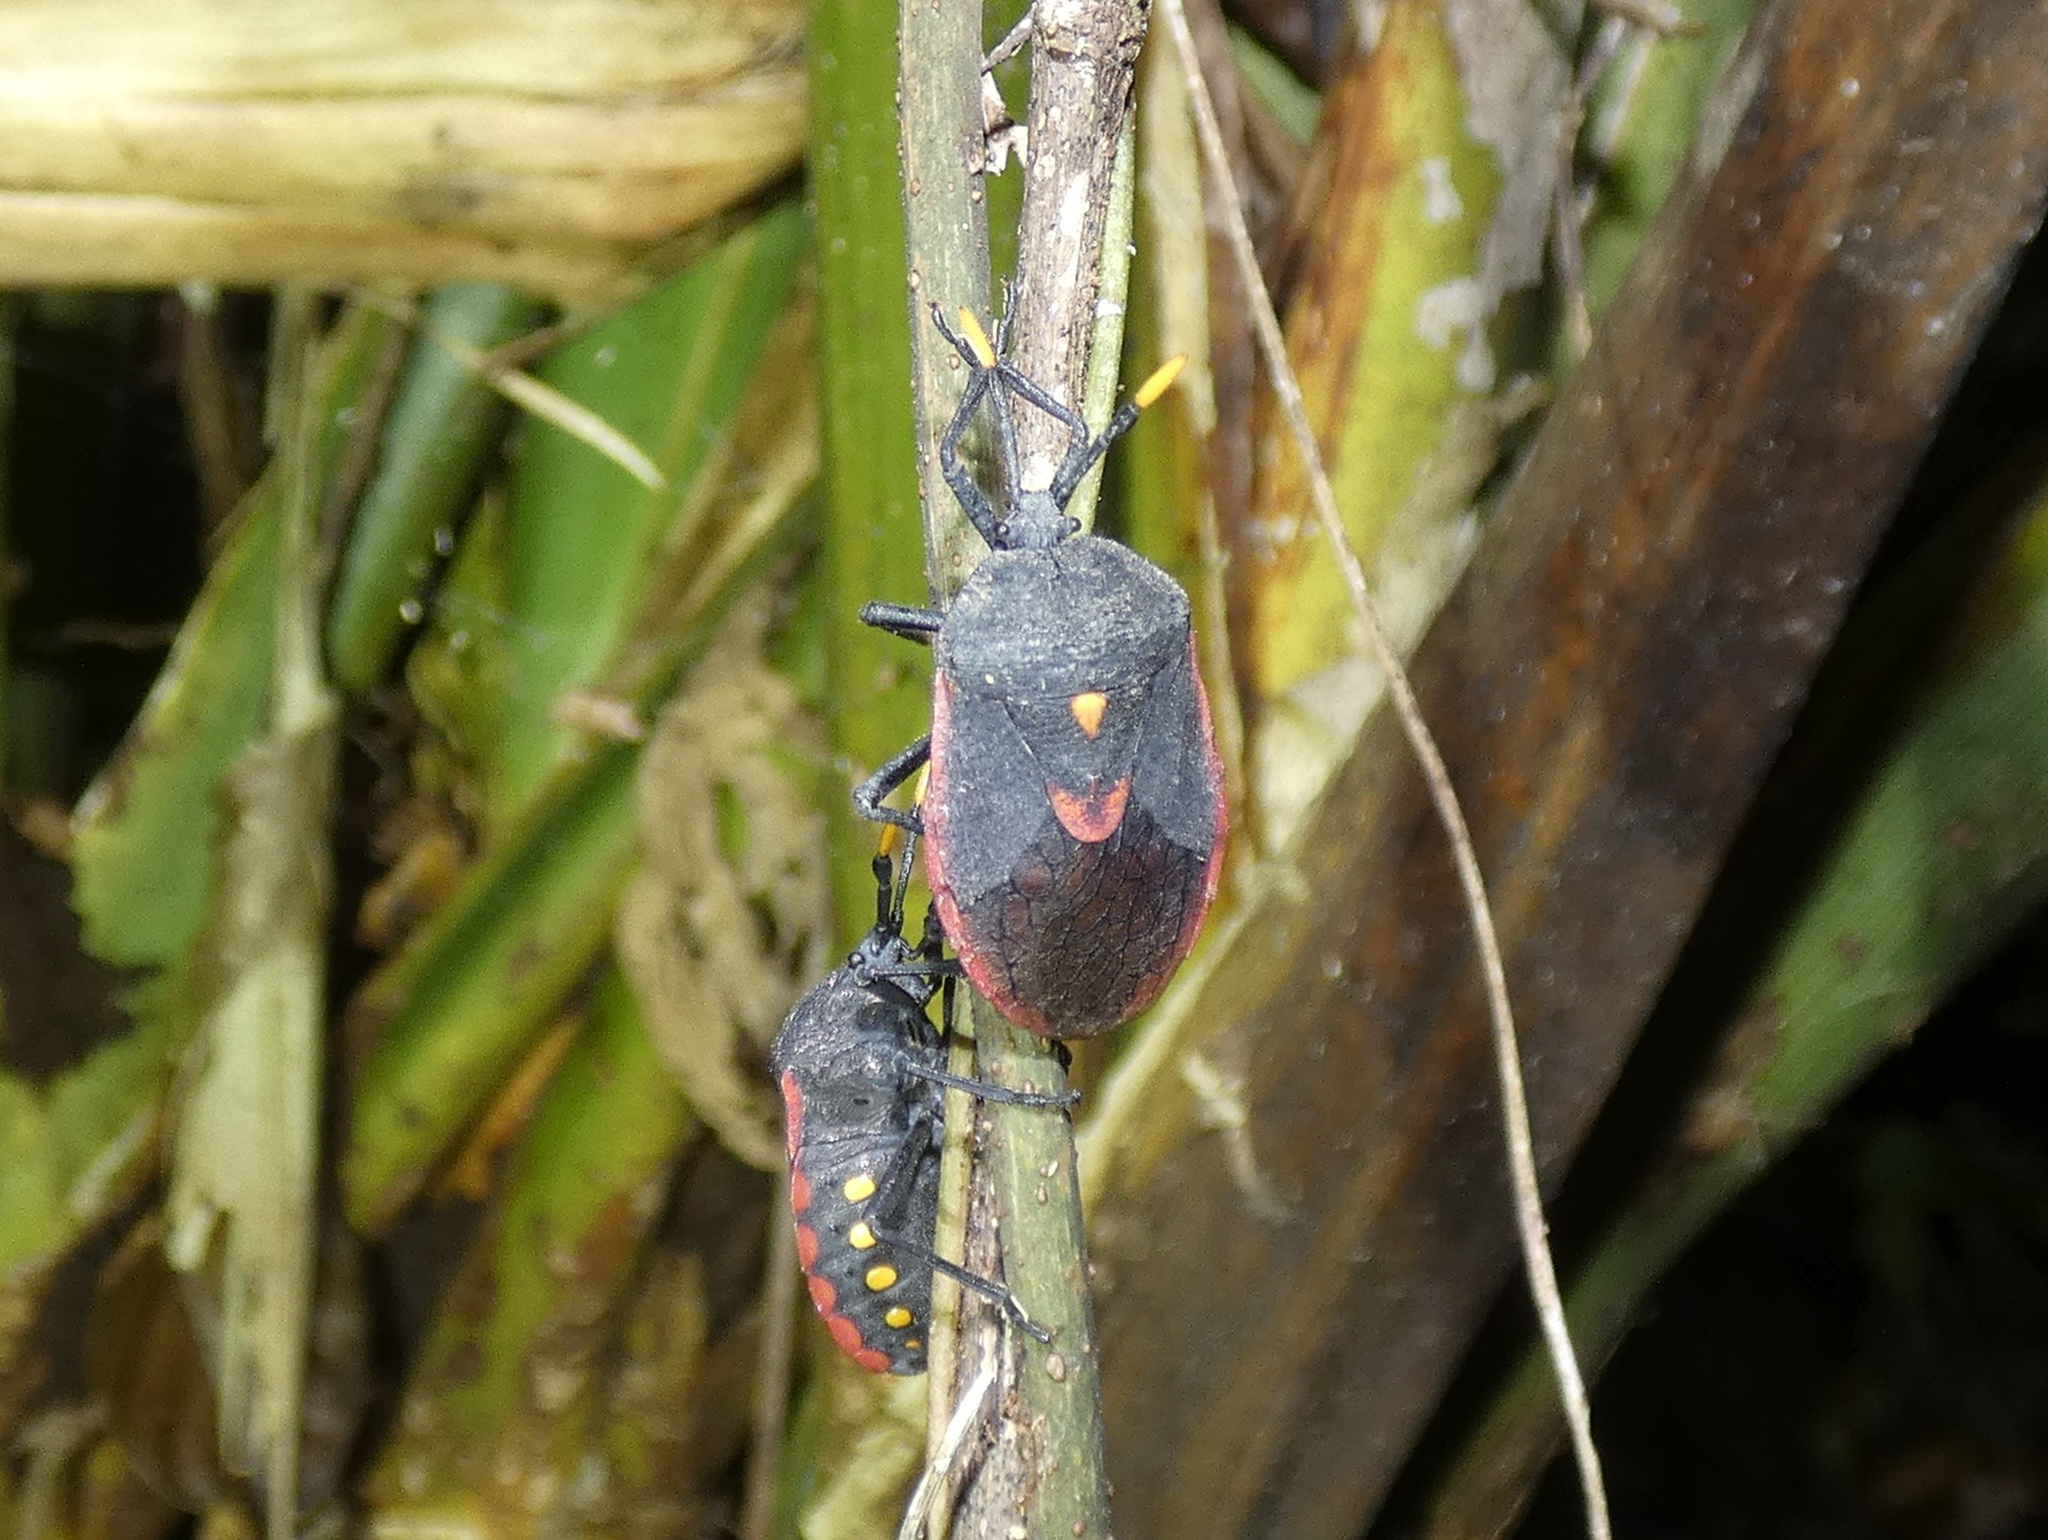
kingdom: Animalia
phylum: Arthropoda
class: Insecta
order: Hemiptera
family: Dinidoridae
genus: Dinidor
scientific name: Dinidor impicticollis
